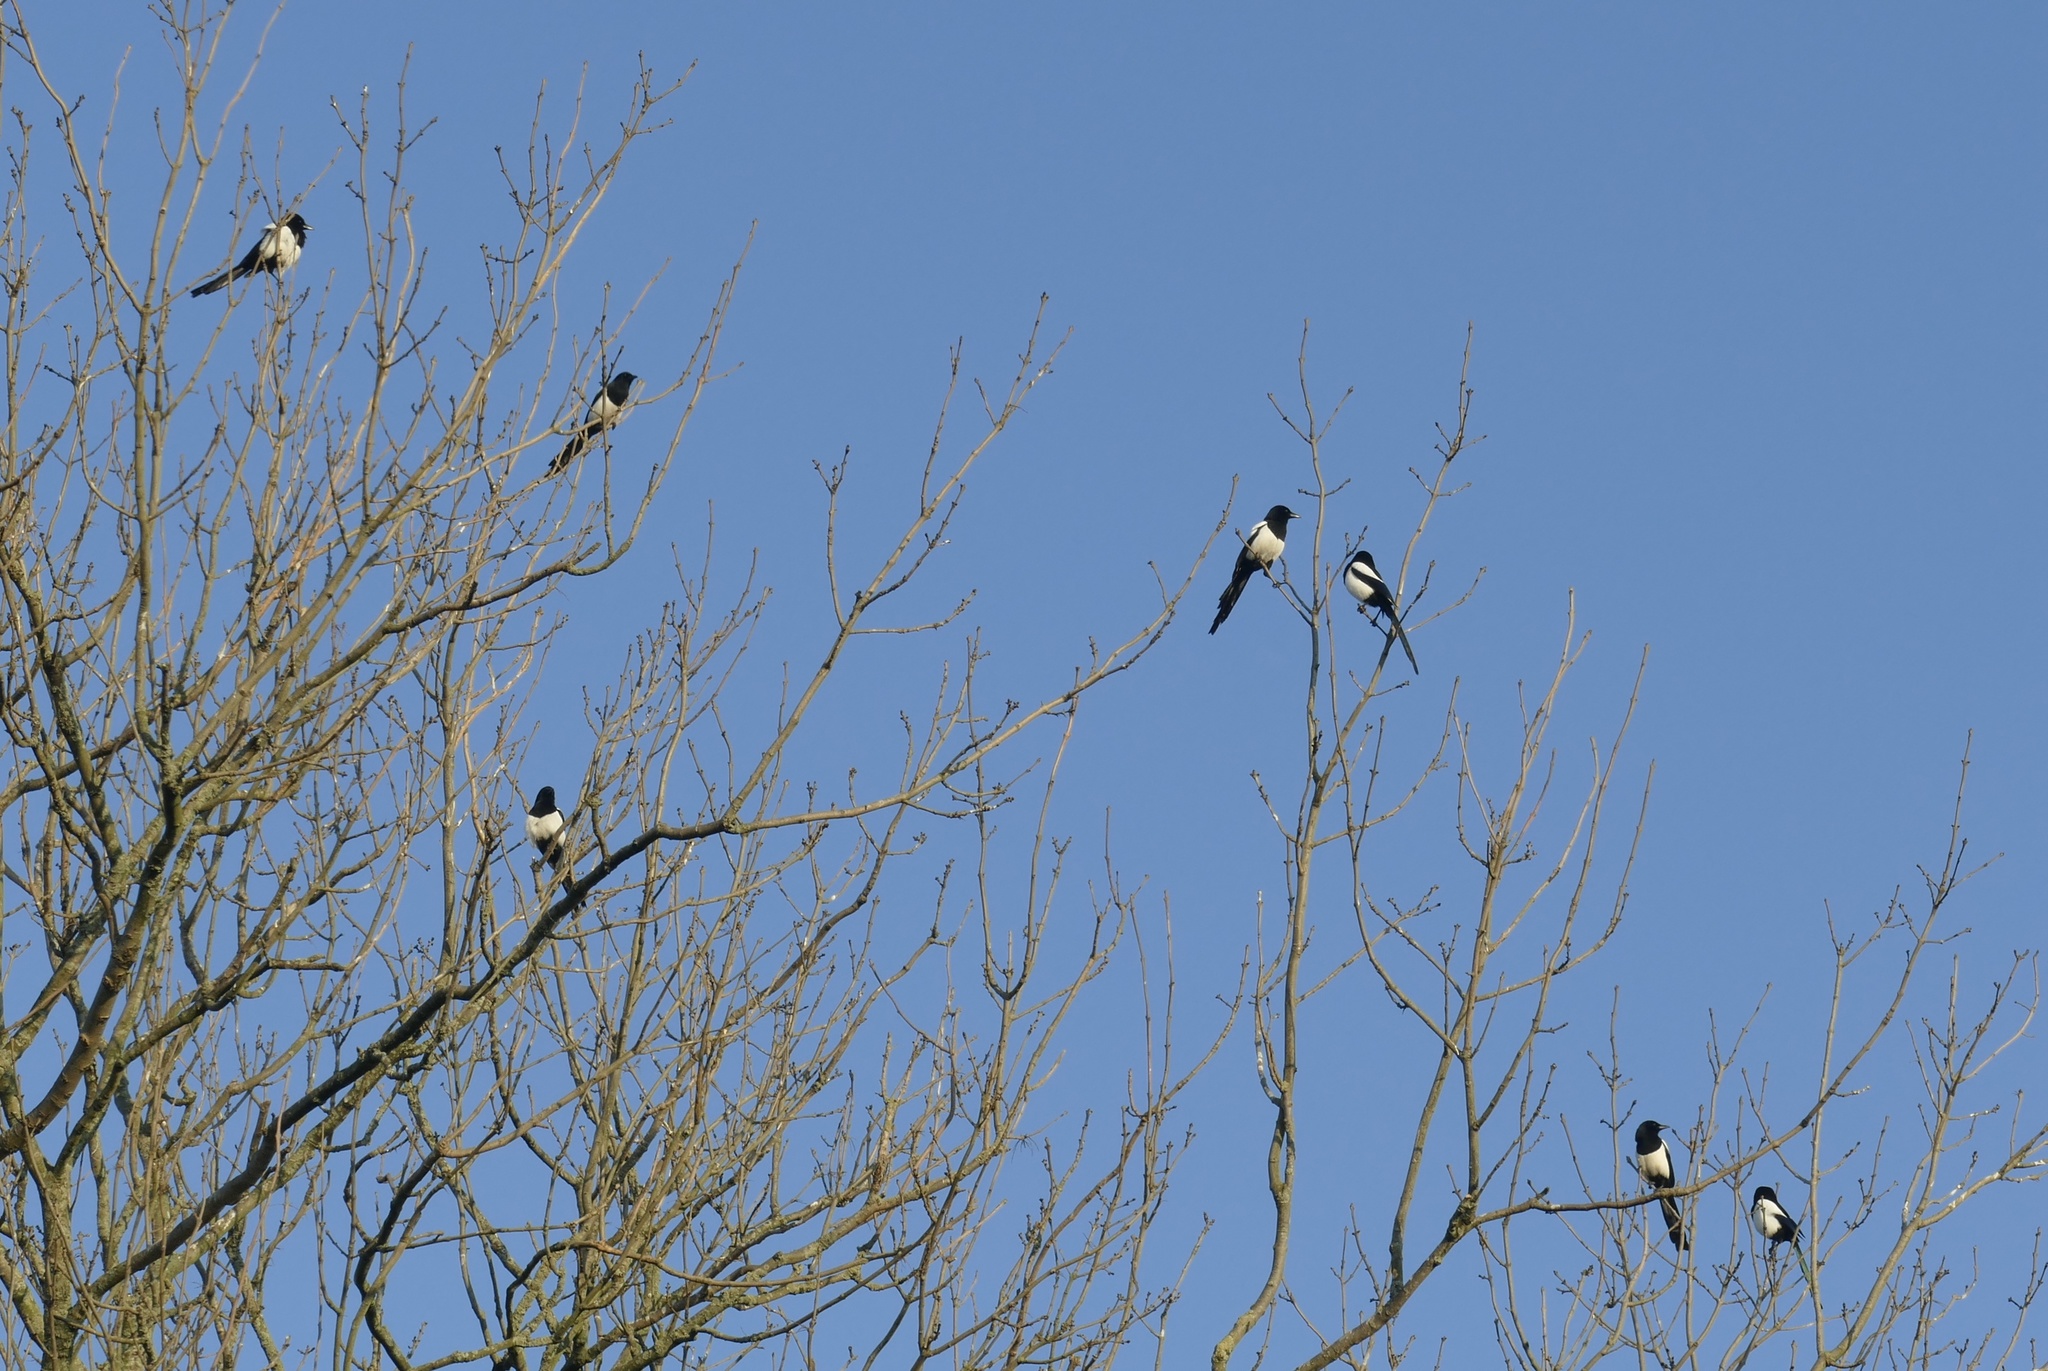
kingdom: Animalia
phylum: Chordata
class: Aves
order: Passeriformes
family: Corvidae
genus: Pica
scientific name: Pica pica
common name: Eurasian magpie
